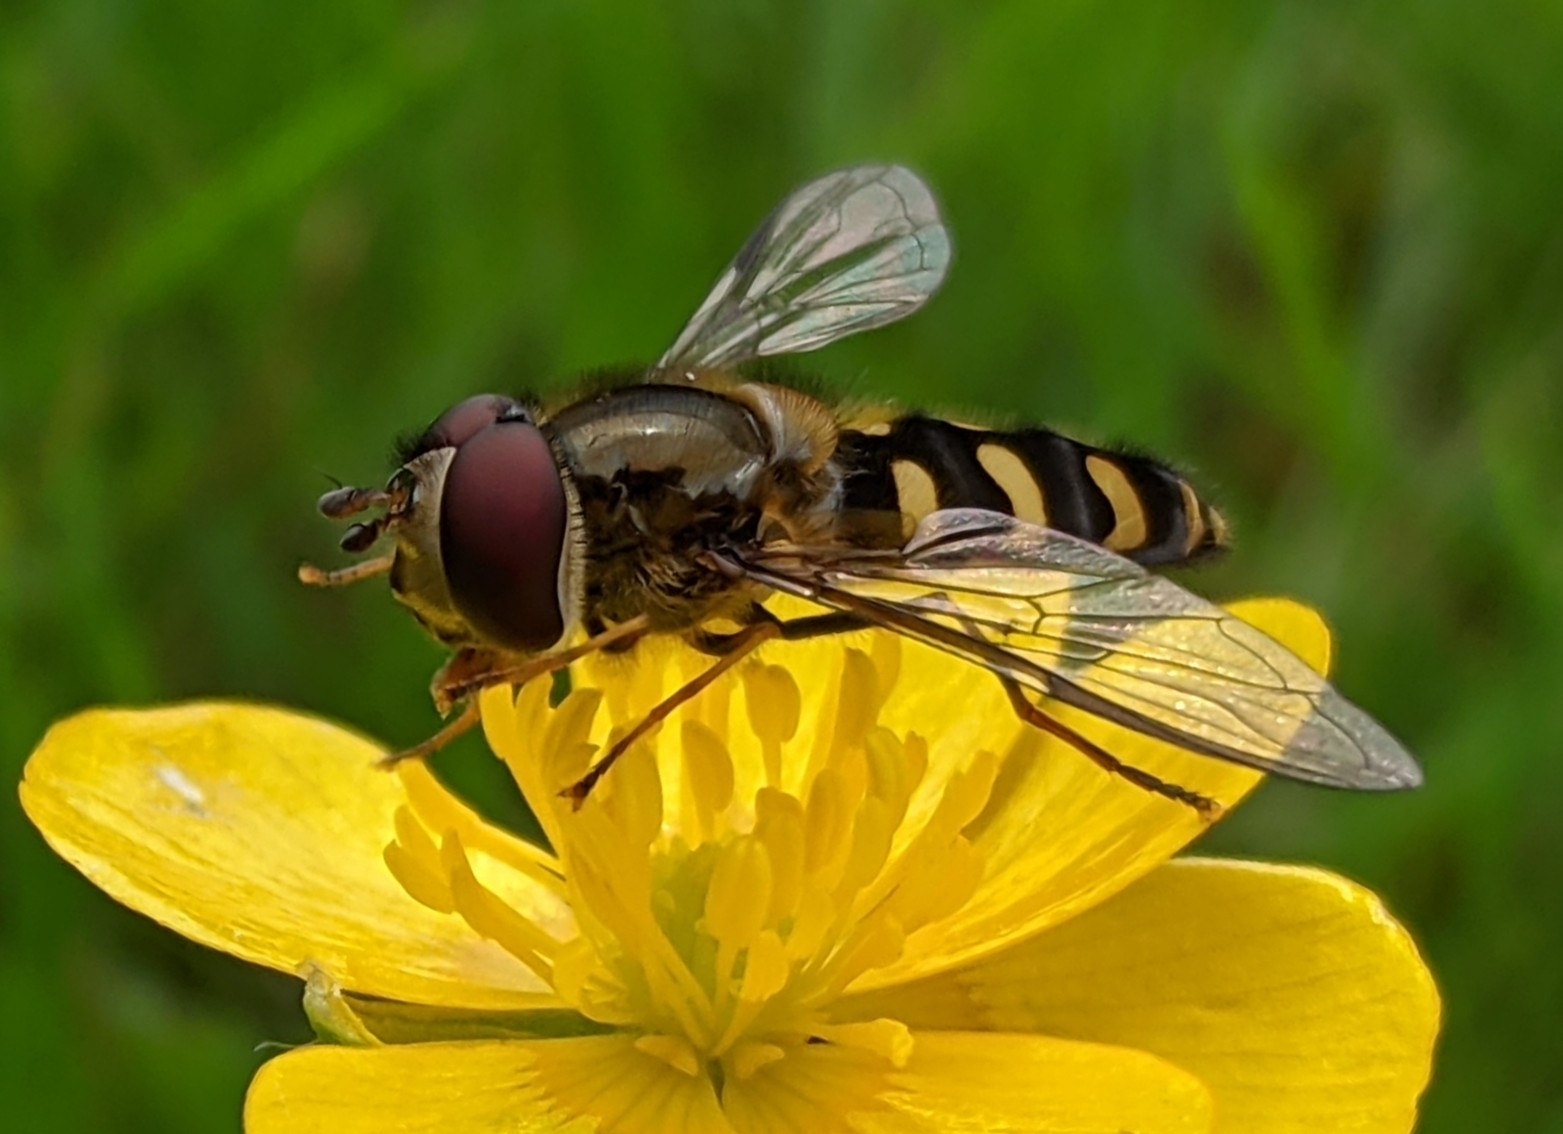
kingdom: Animalia
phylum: Arthropoda
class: Insecta
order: Diptera
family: Syrphidae
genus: Lapposyrphus
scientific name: Lapposyrphus lapponicus
